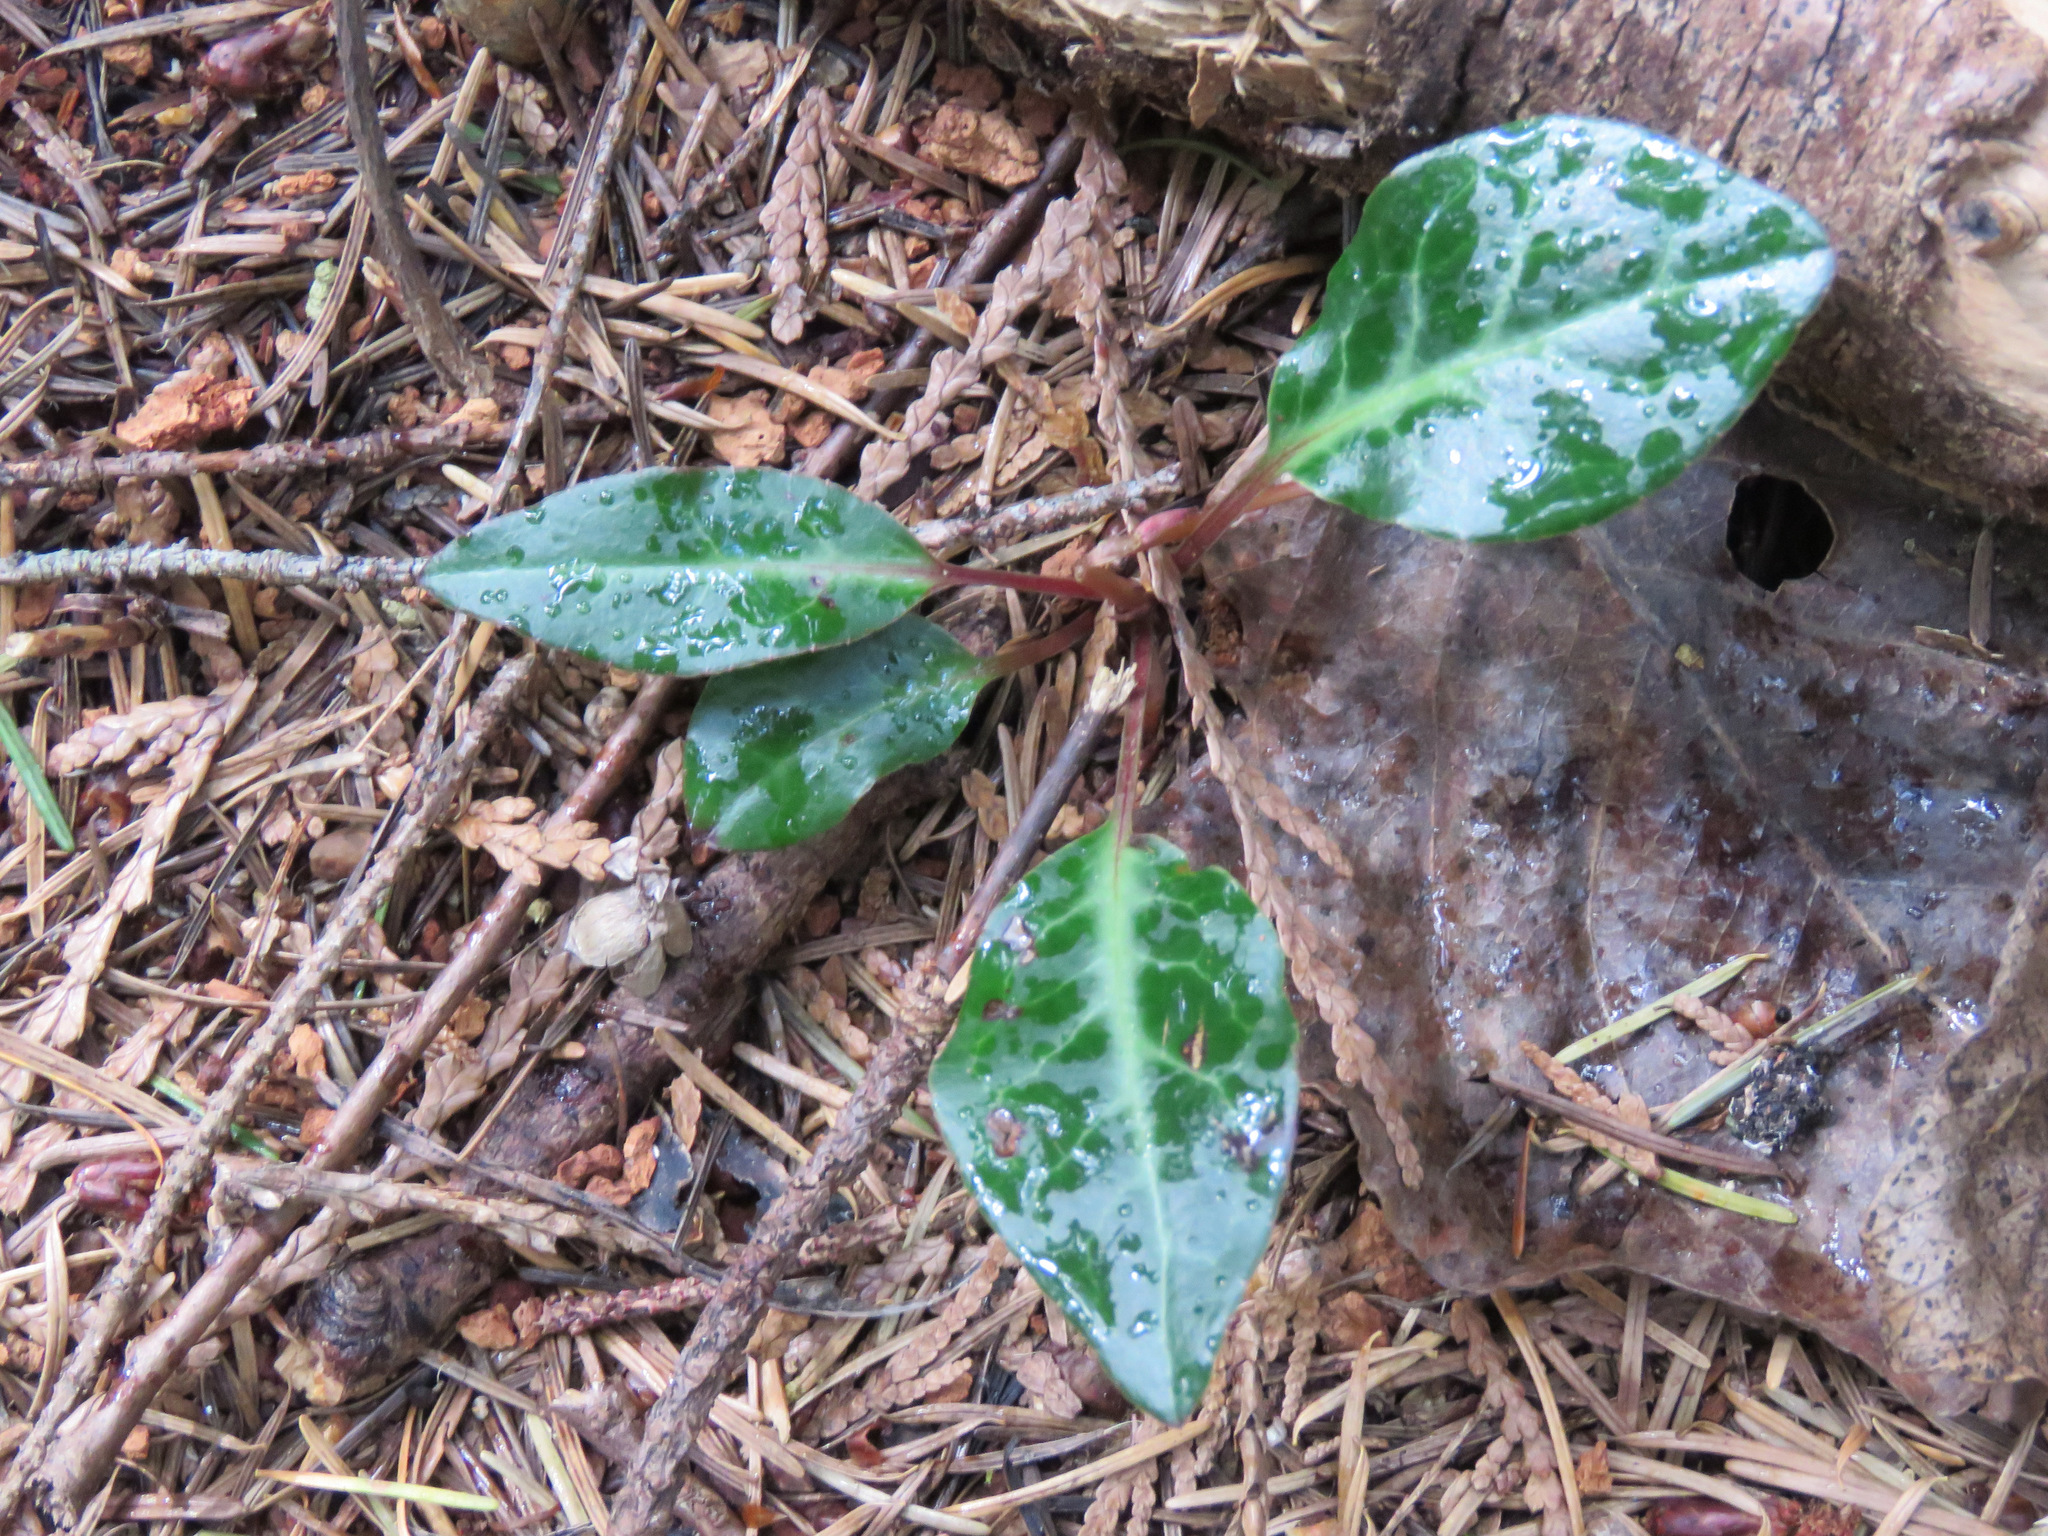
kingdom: Plantae
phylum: Tracheophyta
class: Magnoliopsida
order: Ericales
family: Ericaceae
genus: Pyrola
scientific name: Pyrola picta
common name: White-vein wintergreen
